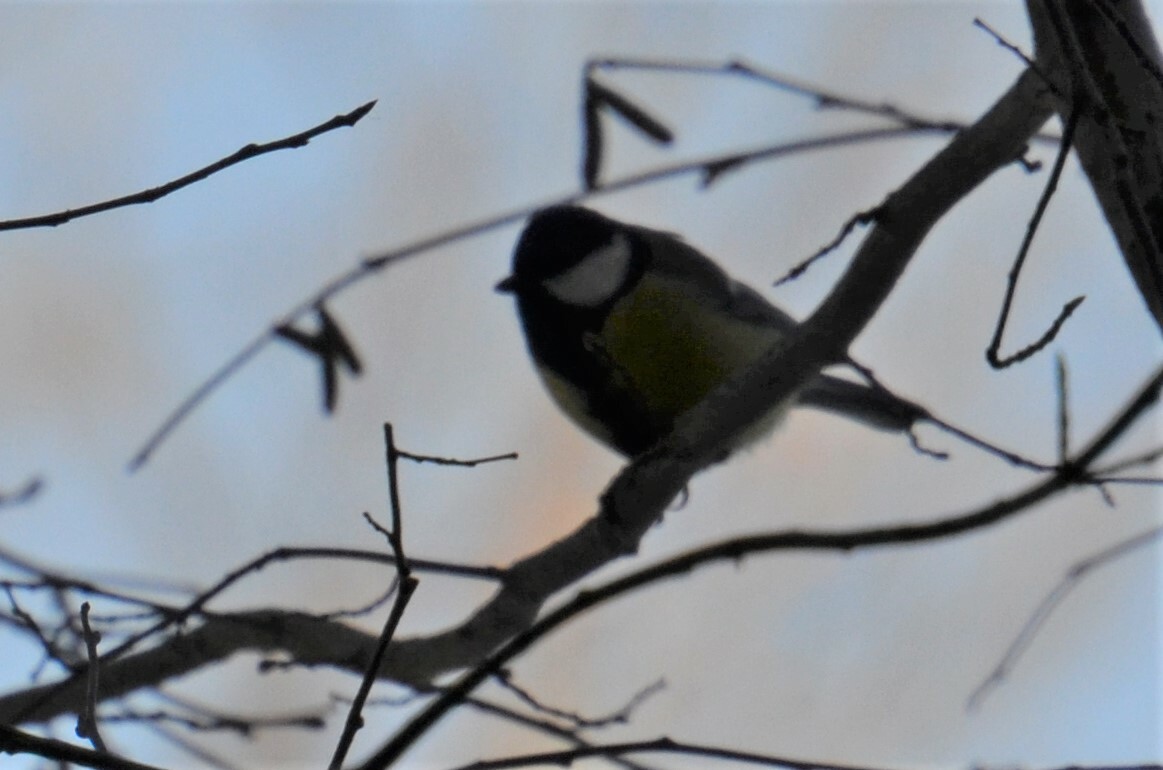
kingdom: Animalia
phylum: Chordata
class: Aves
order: Passeriformes
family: Paridae
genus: Parus
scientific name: Parus major
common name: Great tit
